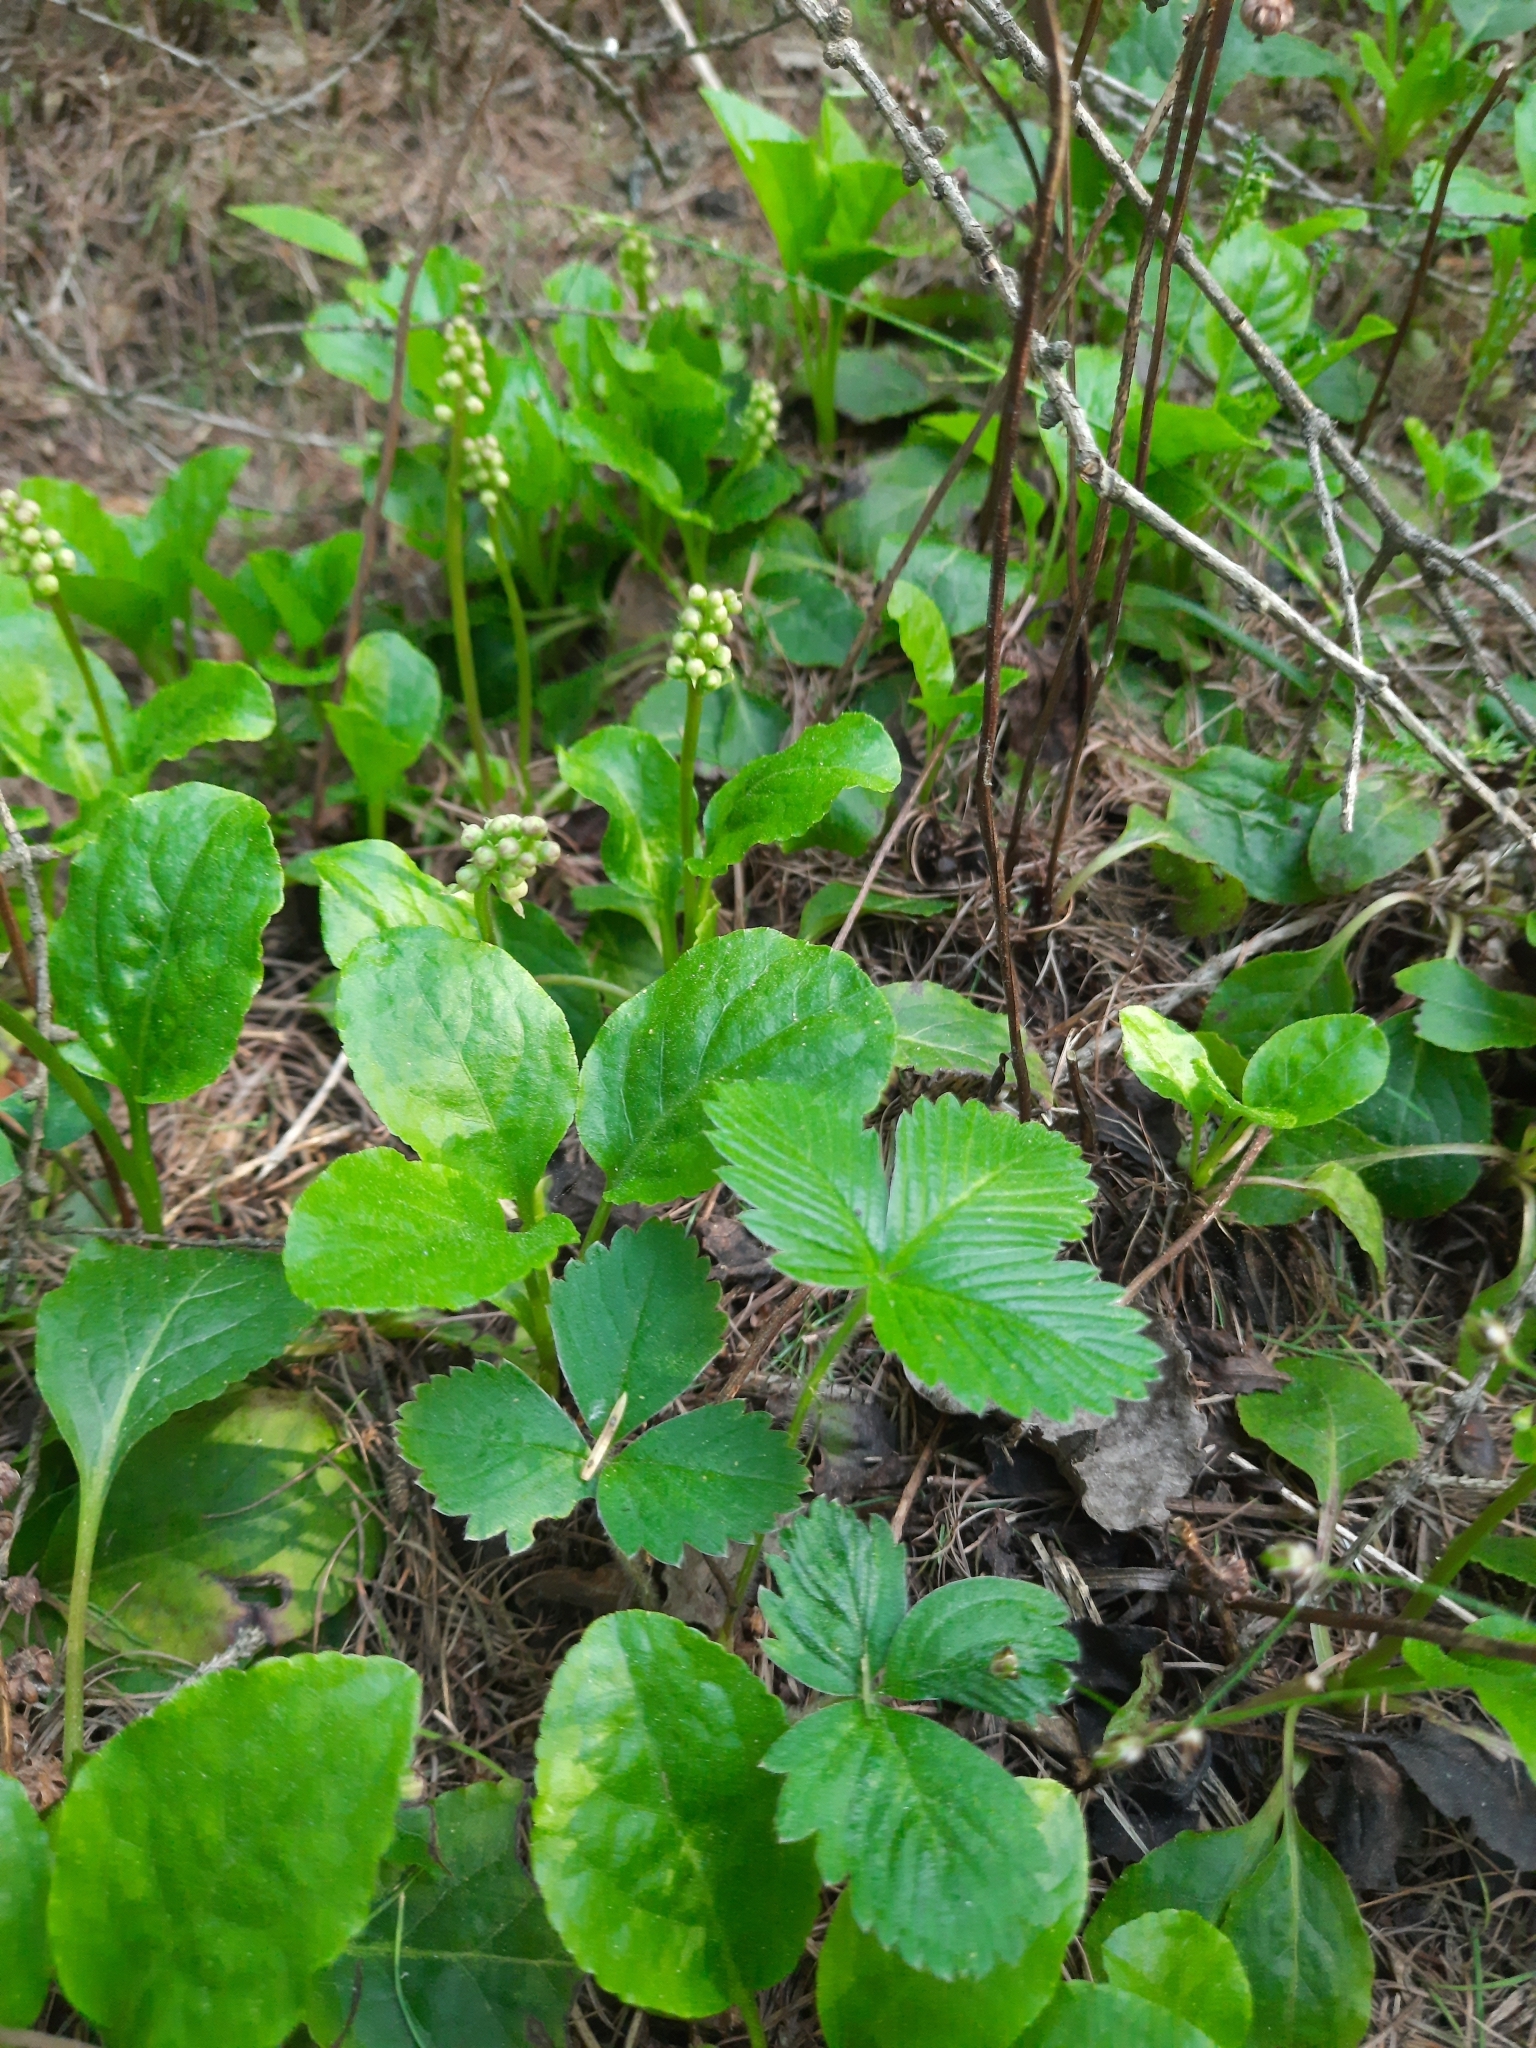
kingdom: Plantae
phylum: Tracheophyta
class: Magnoliopsida
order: Ericales
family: Ericaceae
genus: Pyrola
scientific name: Pyrola minor
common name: Common wintergreen
